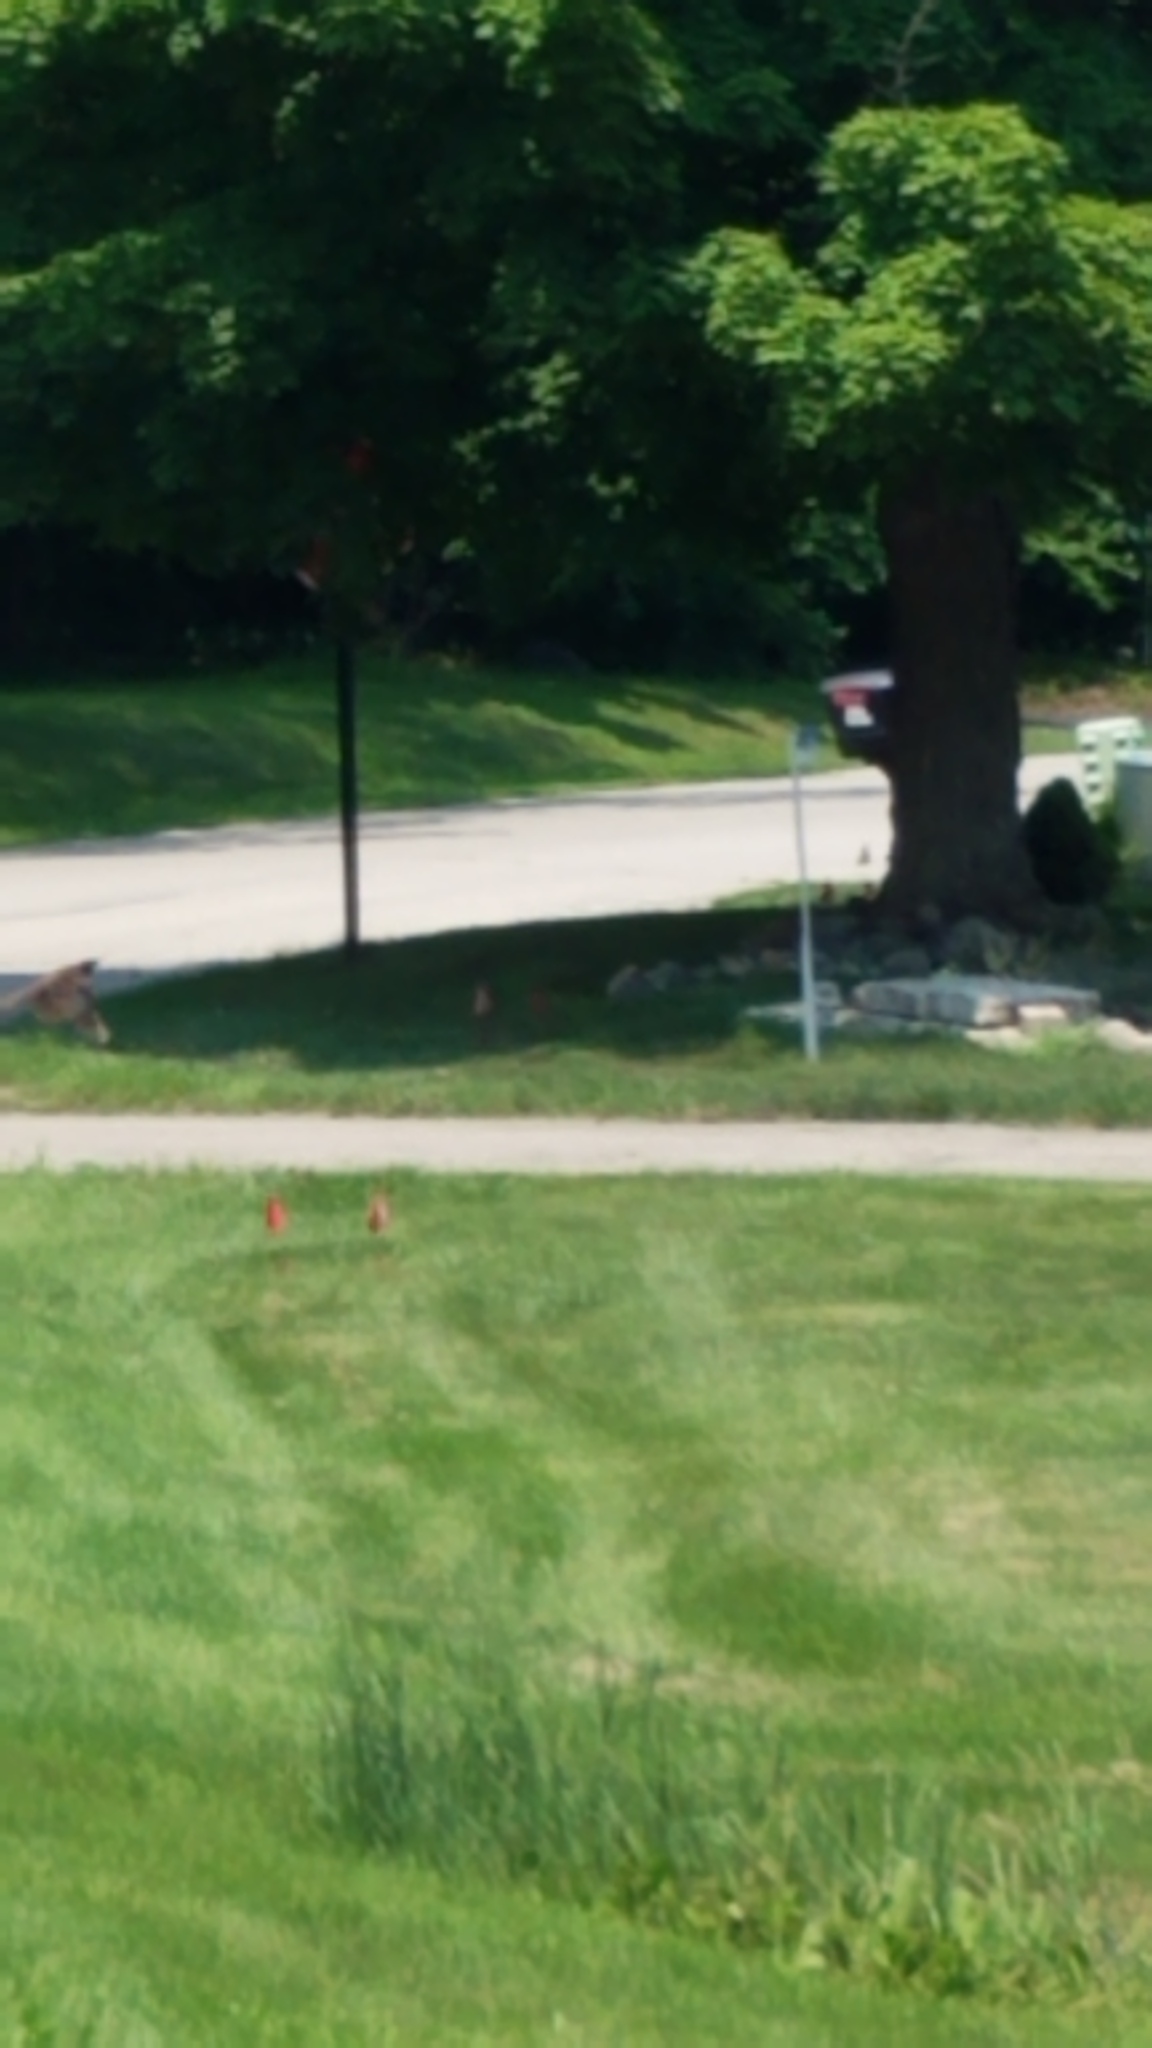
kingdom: Animalia
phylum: Chordata
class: Aves
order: Passeriformes
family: Cardinalidae
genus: Cardinalis
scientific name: Cardinalis cardinalis
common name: Northern cardinal
